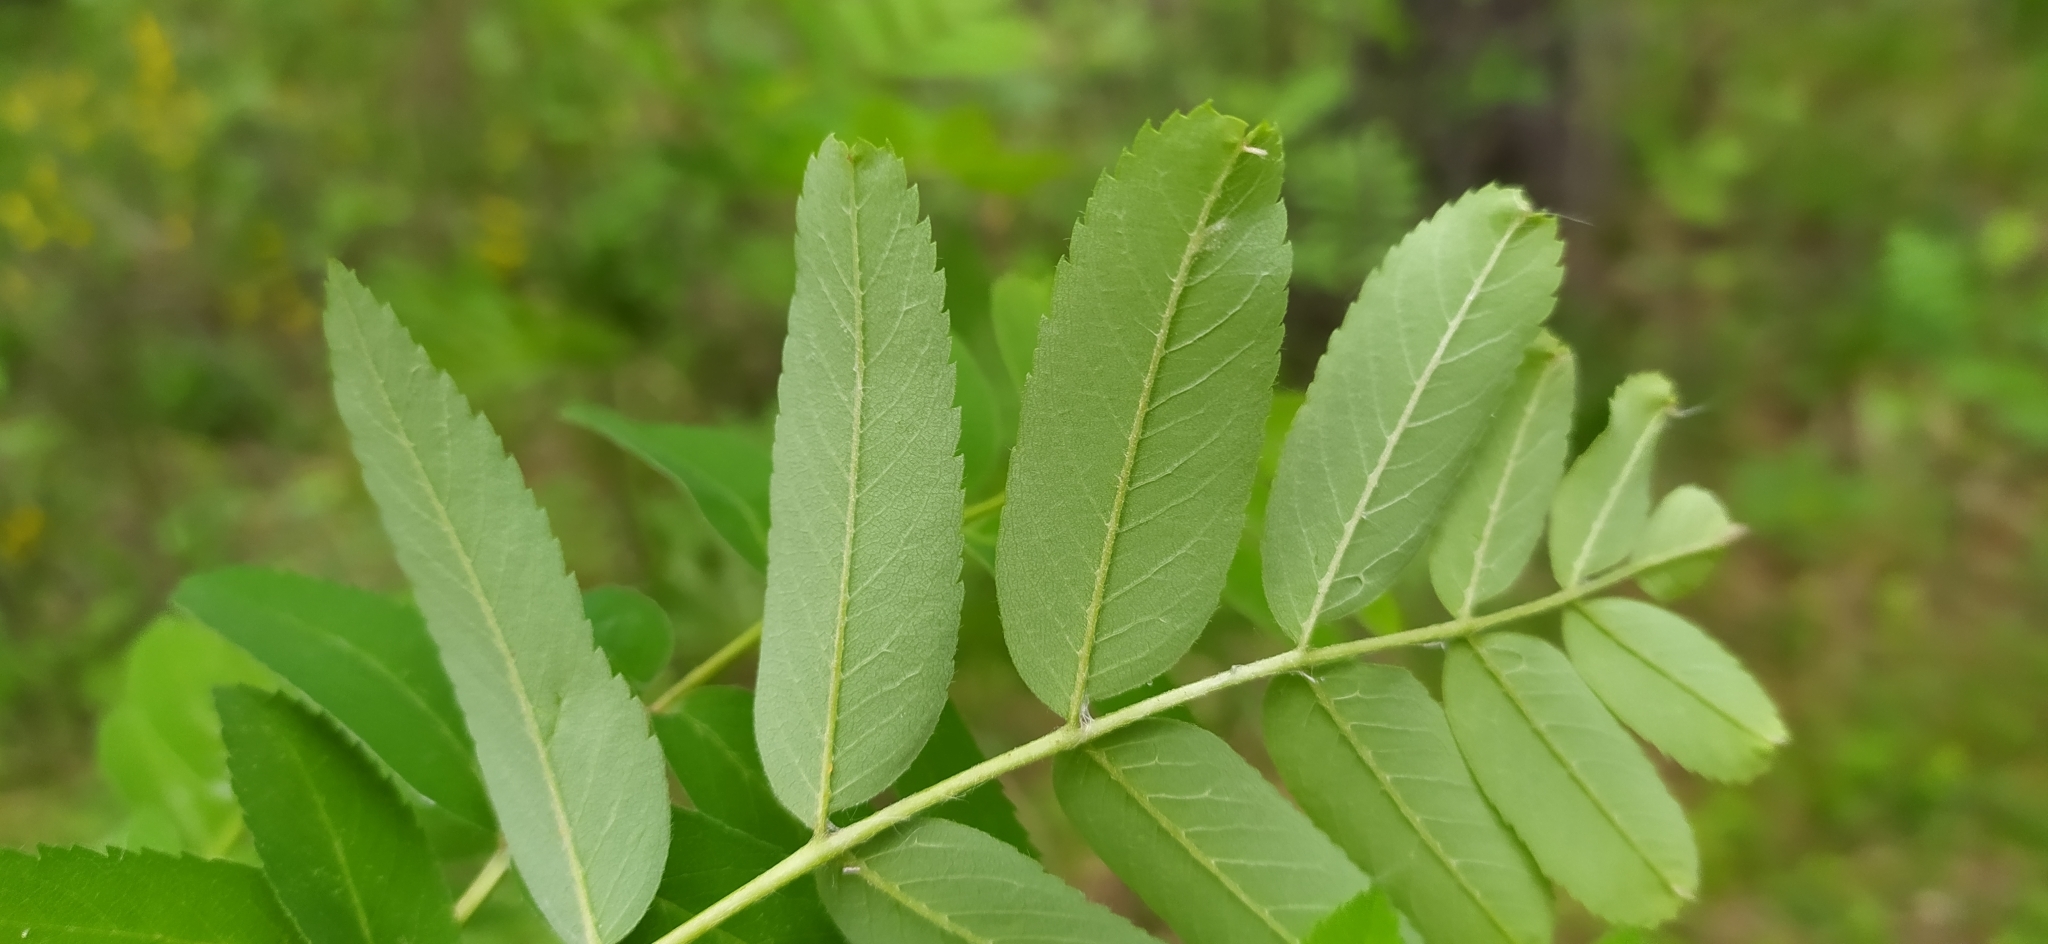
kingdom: Plantae
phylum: Tracheophyta
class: Magnoliopsida
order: Rosales
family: Rosaceae
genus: Sorbus
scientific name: Sorbus aucuparia
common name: Rowan
